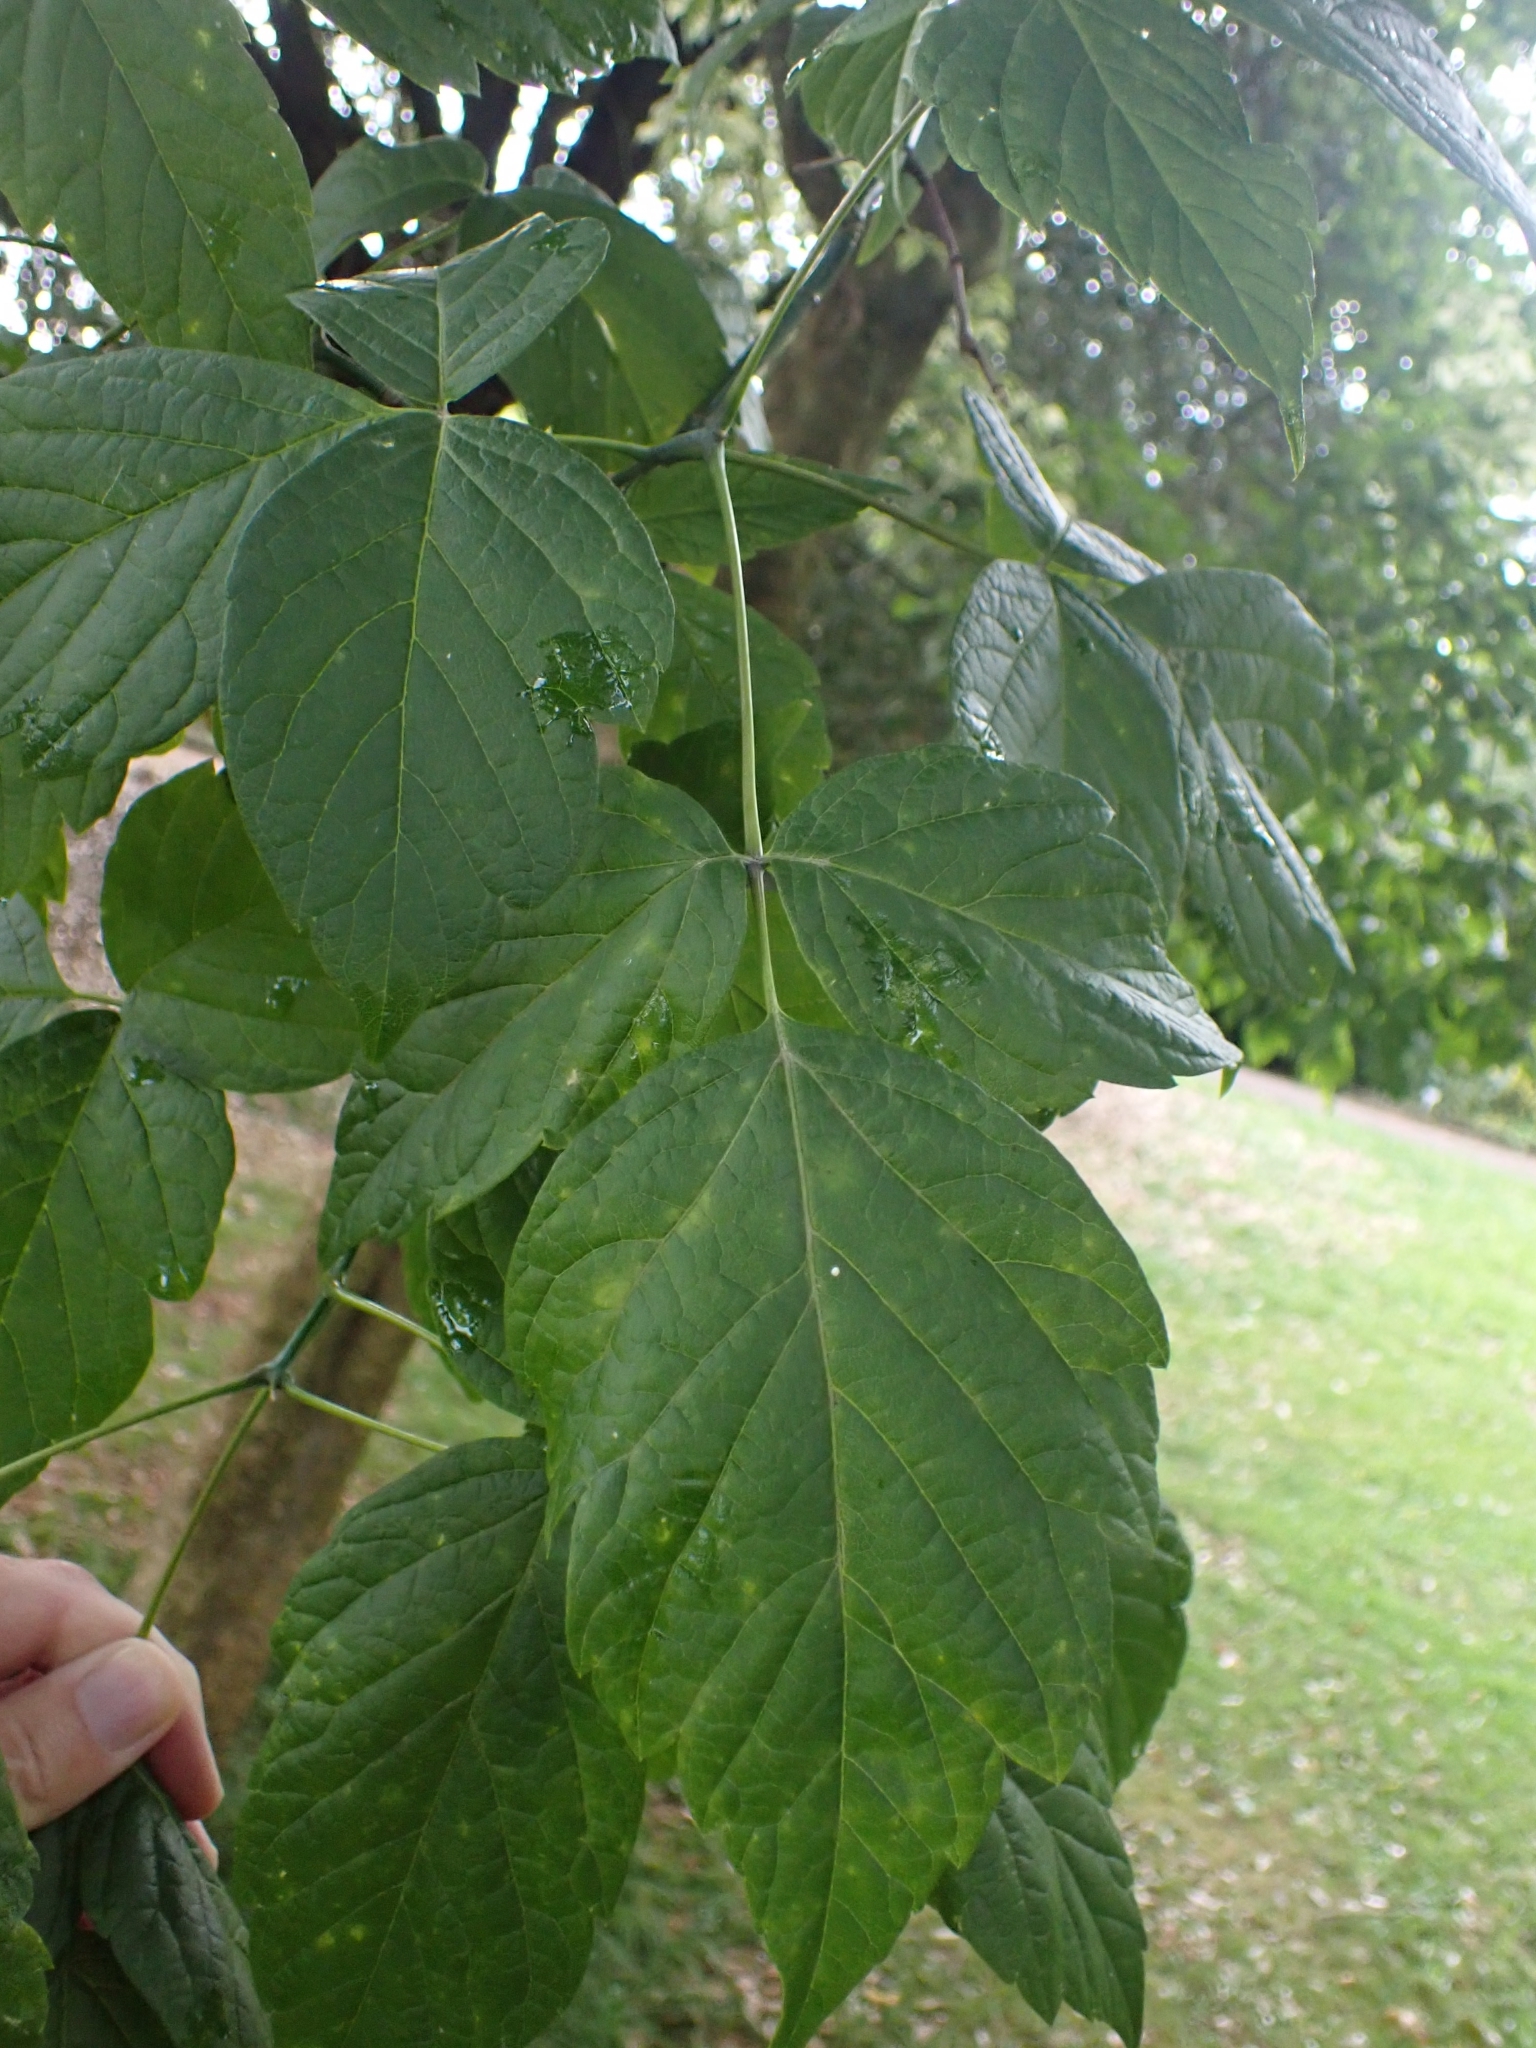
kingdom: Plantae
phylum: Tracheophyta
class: Magnoliopsida
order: Sapindales
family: Sapindaceae
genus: Acer
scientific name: Acer negundo
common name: Ashleaf maple
